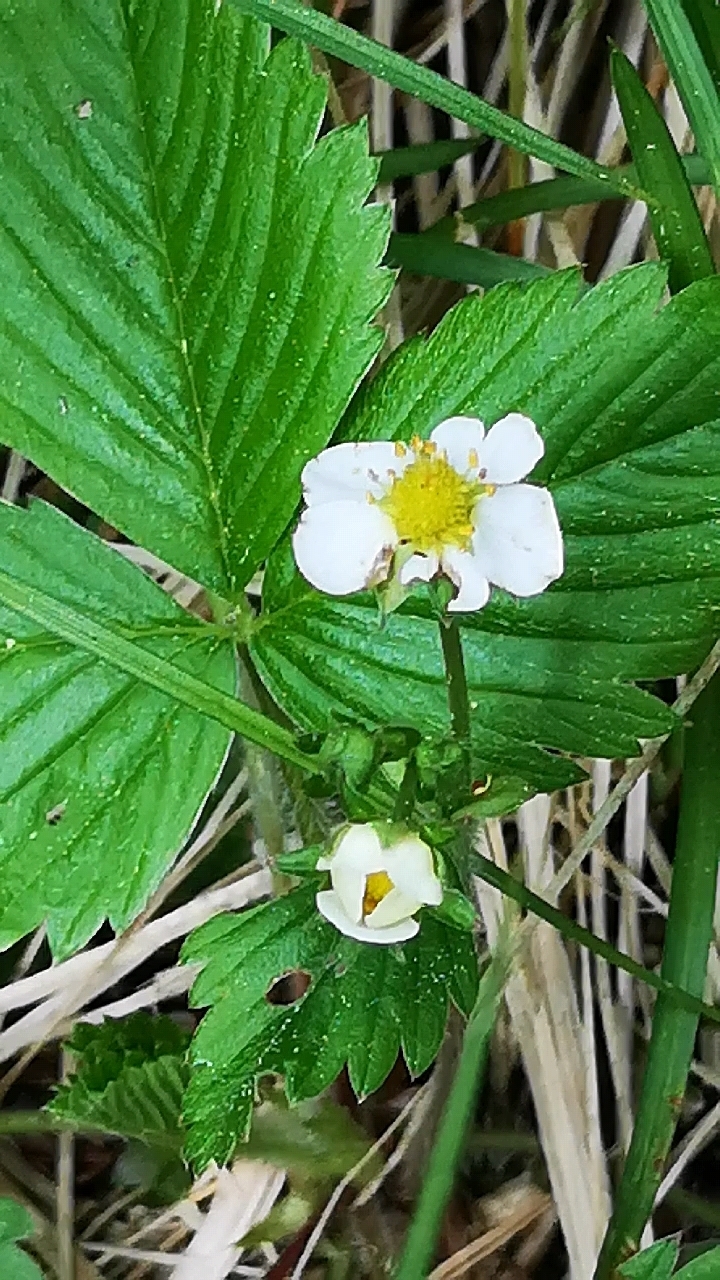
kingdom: Plantae
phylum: Tracheophyta
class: Magnoliopsida
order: Rosales
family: Rosaceae
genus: Fragaria
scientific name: Fragaria vesca
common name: Wild strawberry
